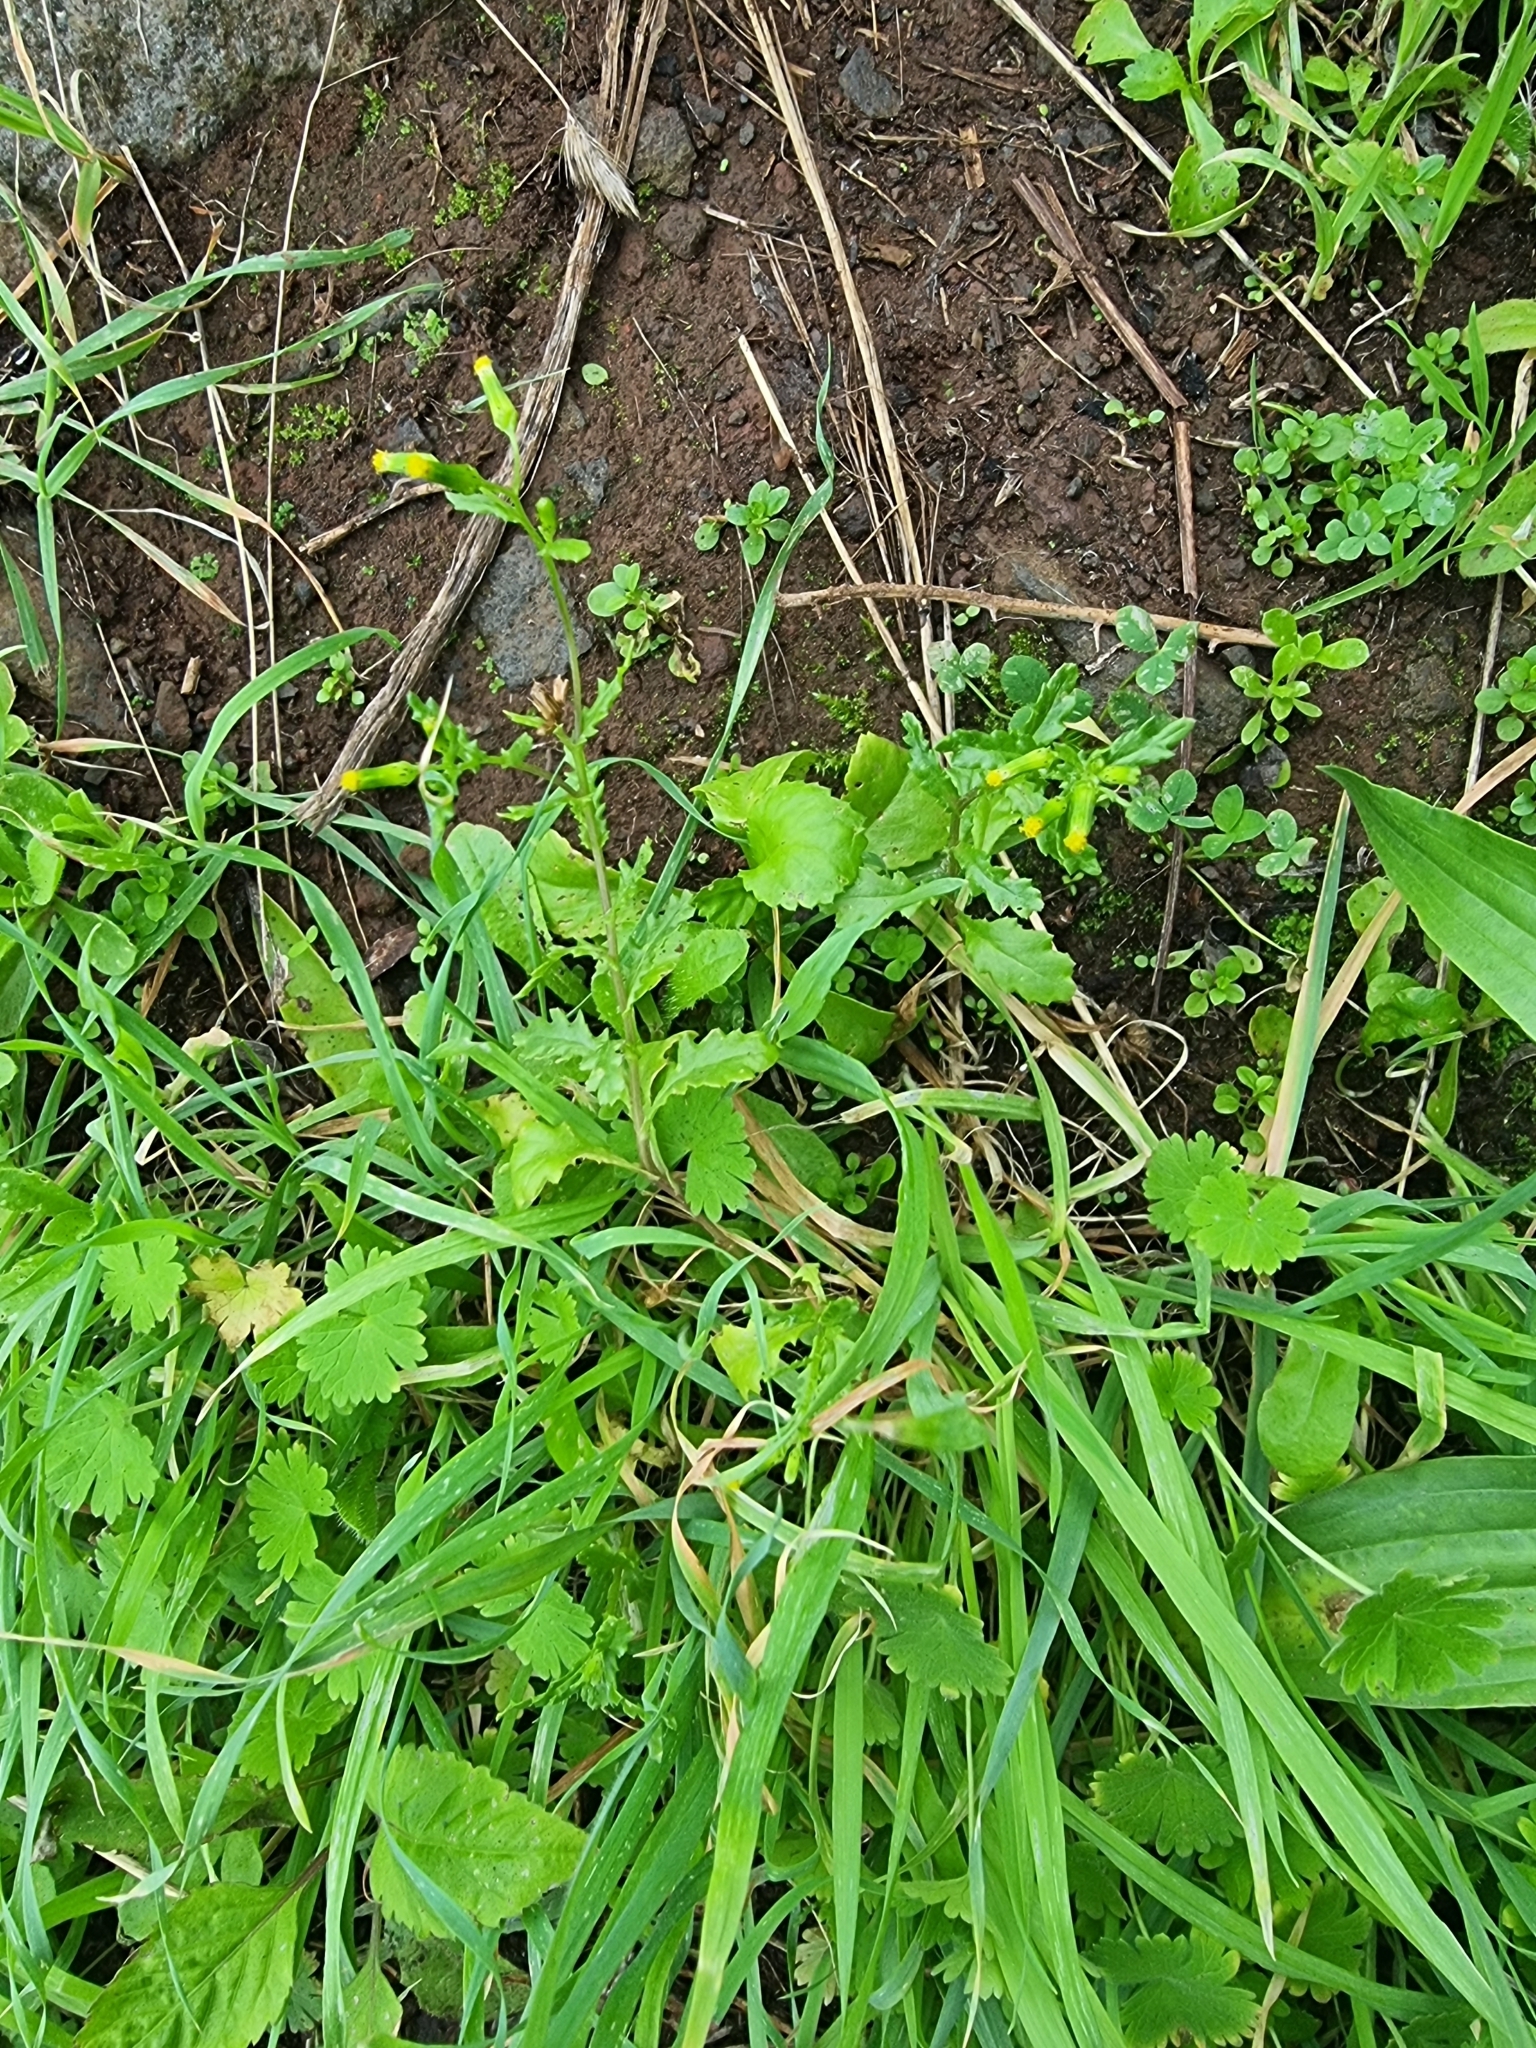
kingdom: Plantae
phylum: Tracheophyta
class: Magnoliopsida
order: Asterales
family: Asteraceae
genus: Senecio
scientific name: Senecio vulgaris
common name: Old-man-in-the-spring
